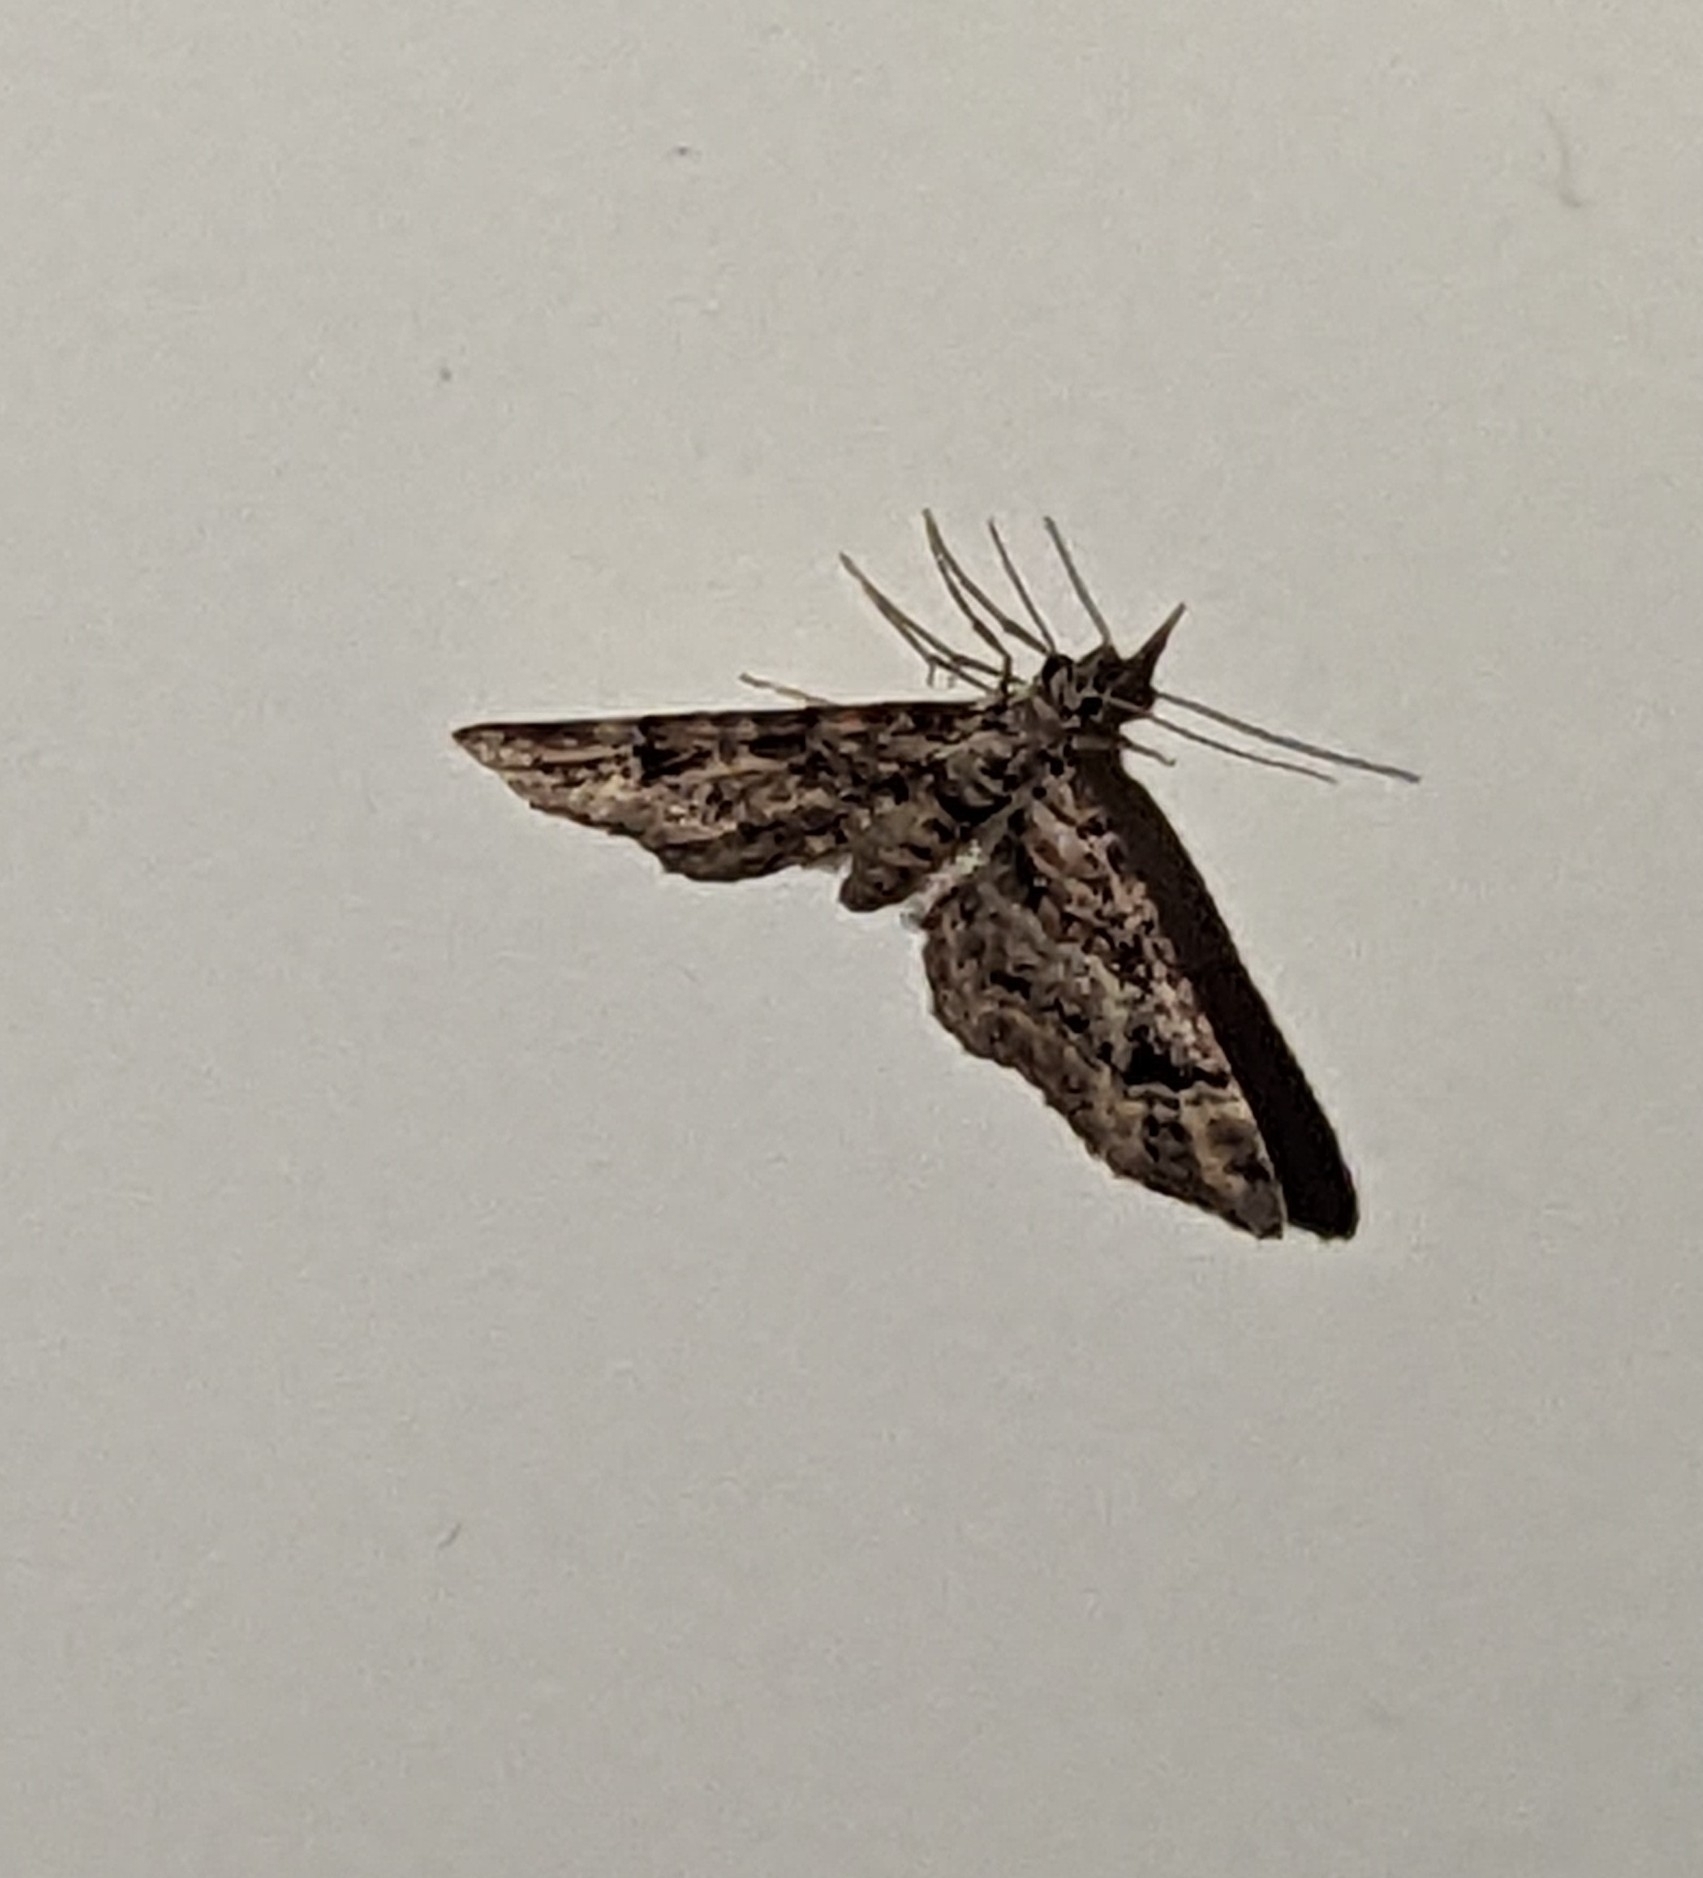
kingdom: Animalia
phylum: Arthropoda
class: Insecta
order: Lepidoptera
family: Geometridae
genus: Gymnoscelis
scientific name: Gymnoscelis rufifasciata
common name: Double-striped pug
